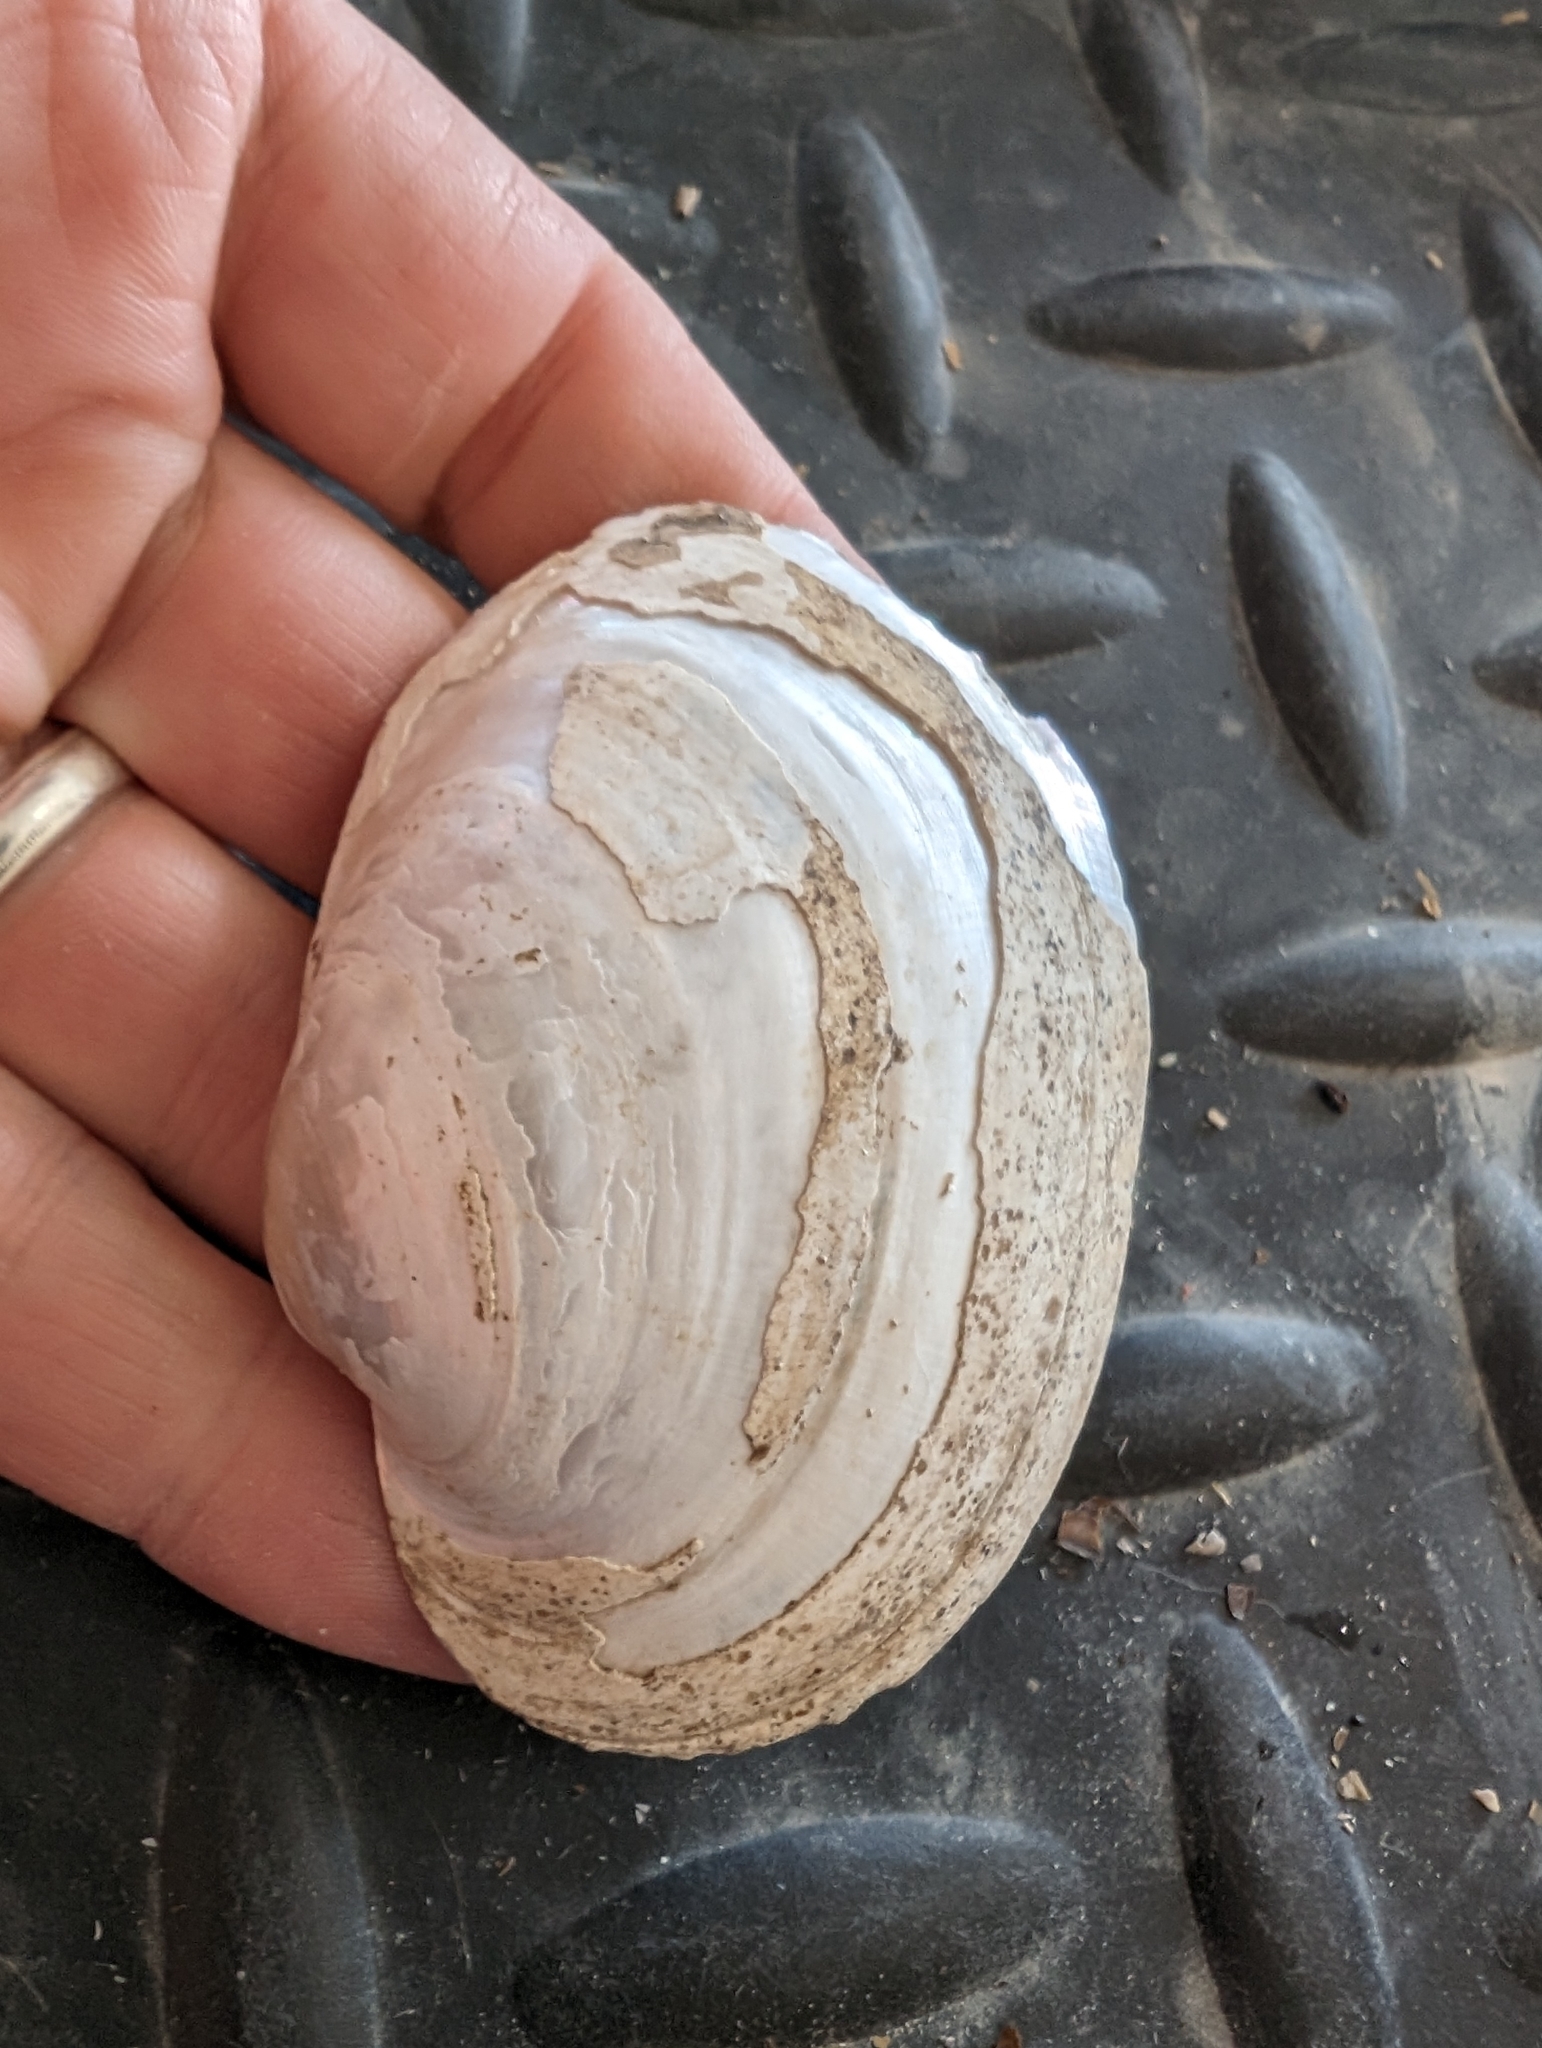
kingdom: Animalia
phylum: Mollusca
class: Bivalvia
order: Unionida
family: Unionidae
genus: Lampsilis
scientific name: Lampsilis cardium
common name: Plain pocketbook
